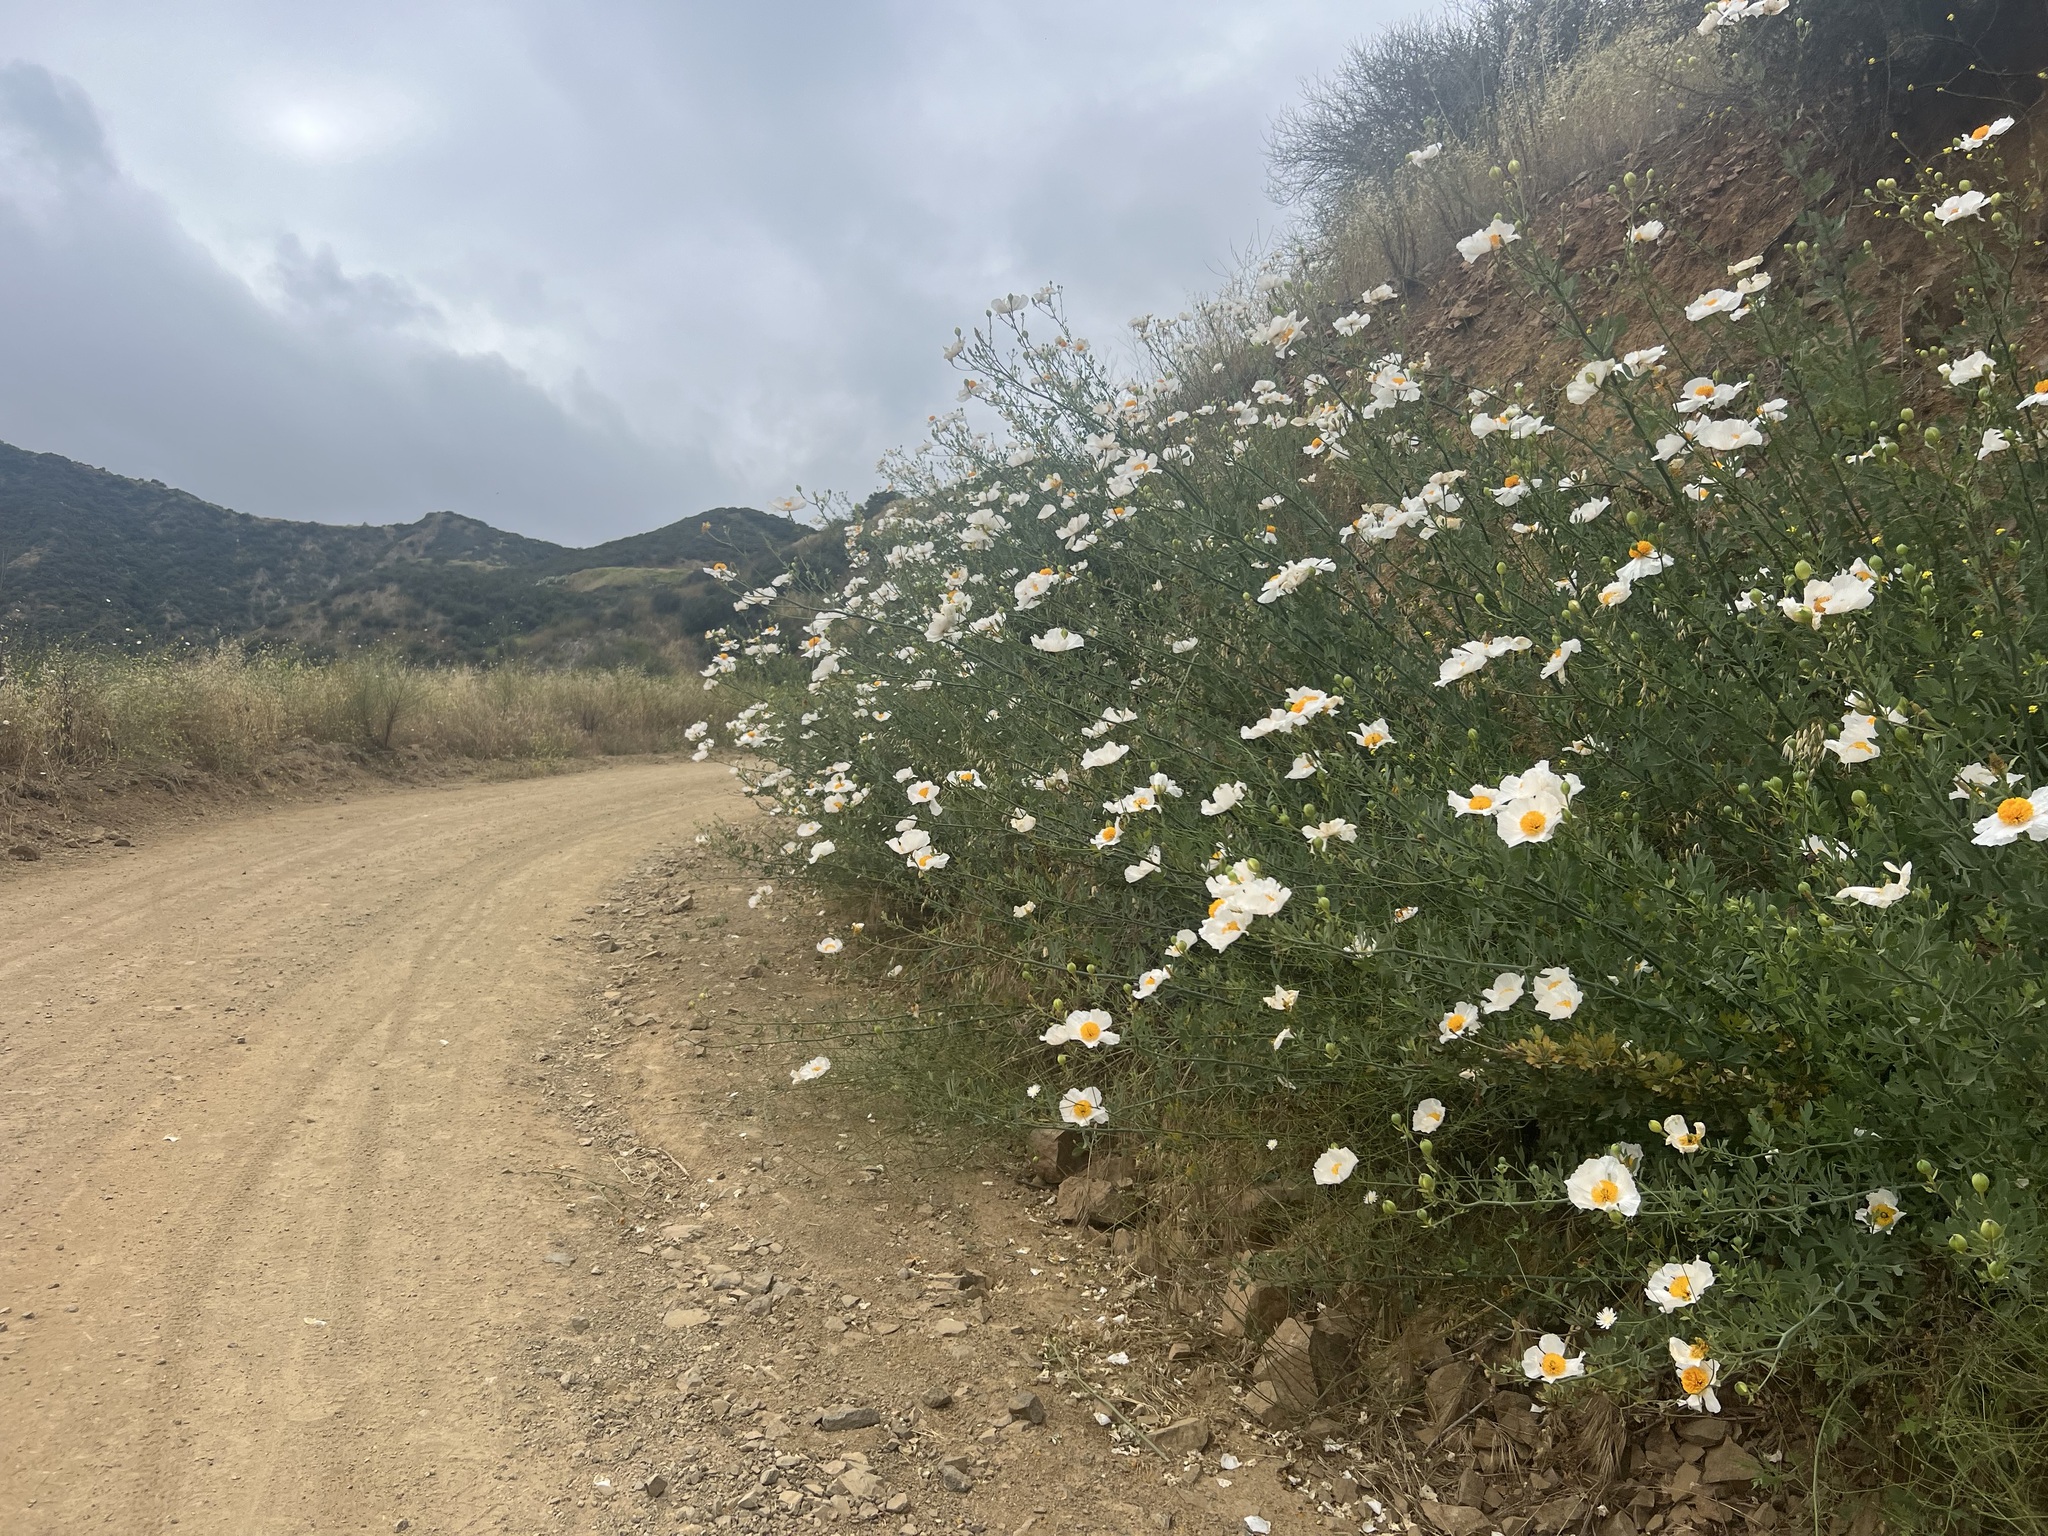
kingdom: Plantae
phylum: Tracheophyta
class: Magnoliopsida
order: Ranunculales
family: Papaveraceae
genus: Romneya
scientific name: Romneya coulteri
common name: California tree-poppy
